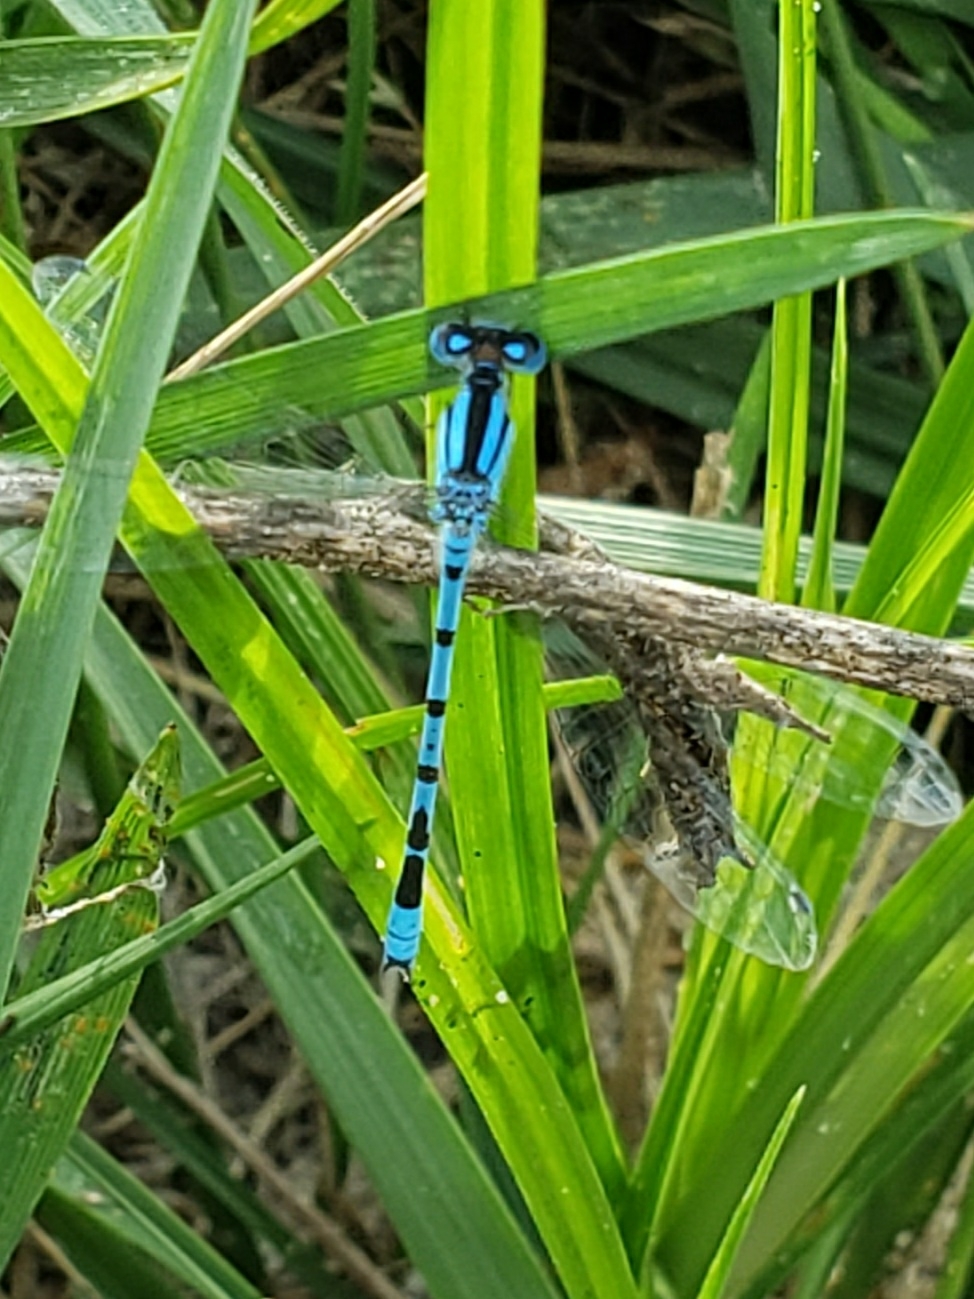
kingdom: Animalia
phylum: Arthropoda
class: Insecta
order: Odonata
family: Coenagrionidae
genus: Enallagma
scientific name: Enallagma civile
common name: Damselfly
